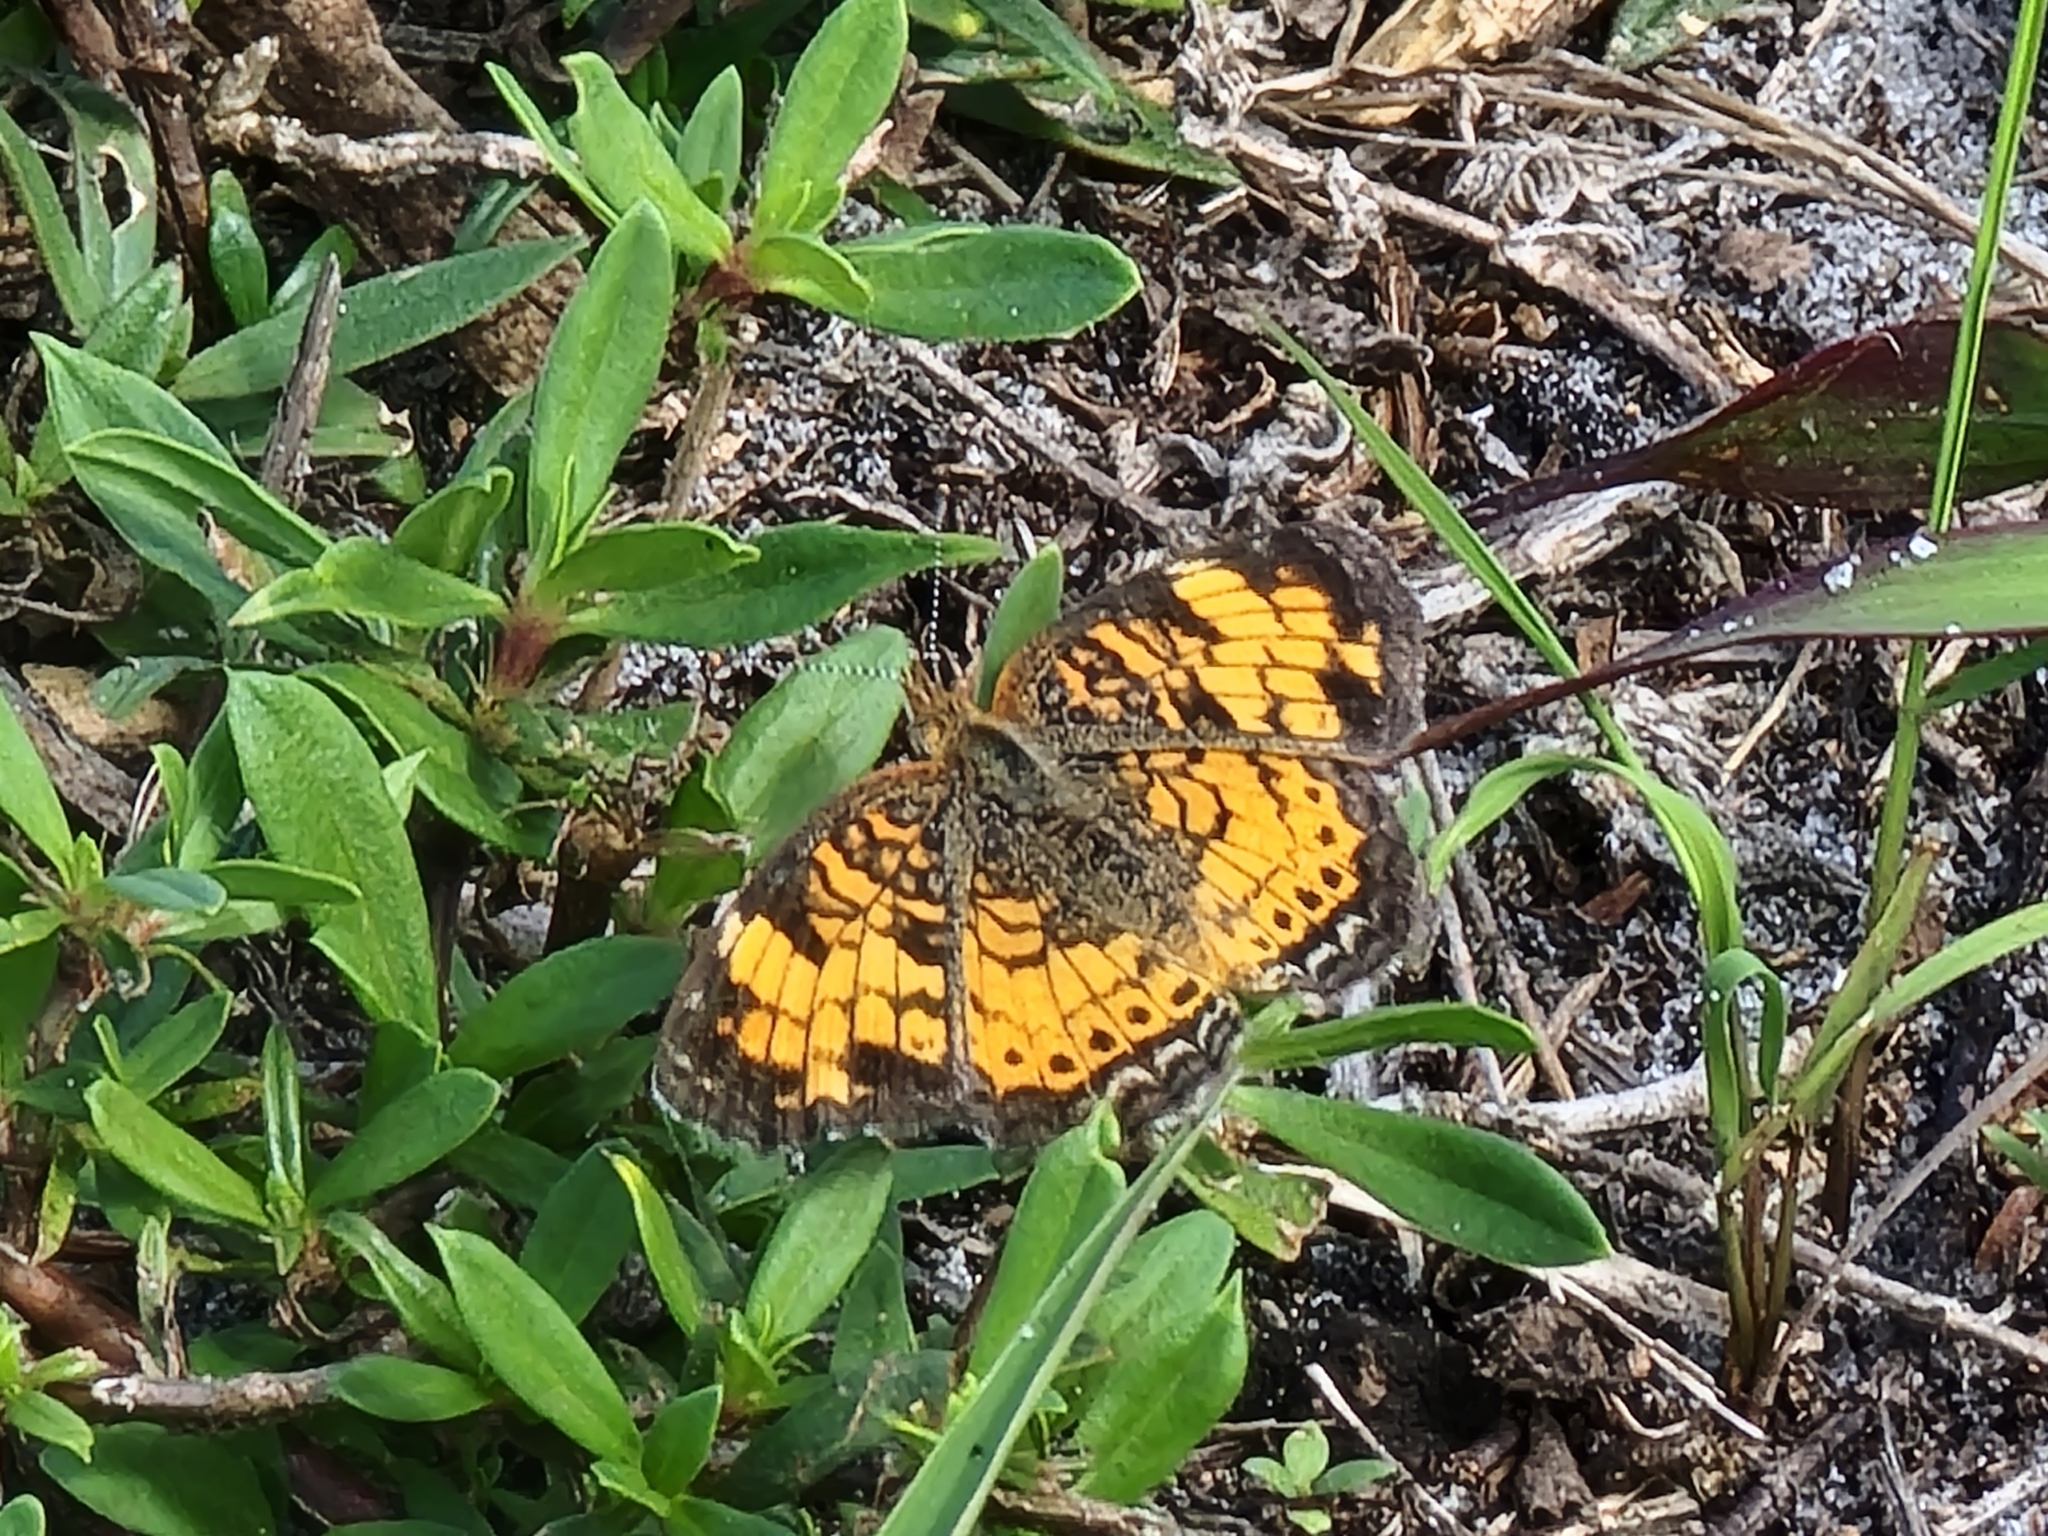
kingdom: Animalia
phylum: Arthropoda
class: Insecta
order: Lepidoptera
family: Nymphalidae
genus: Phyciodes
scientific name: Phyciodes tharos
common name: Pearl crescent
